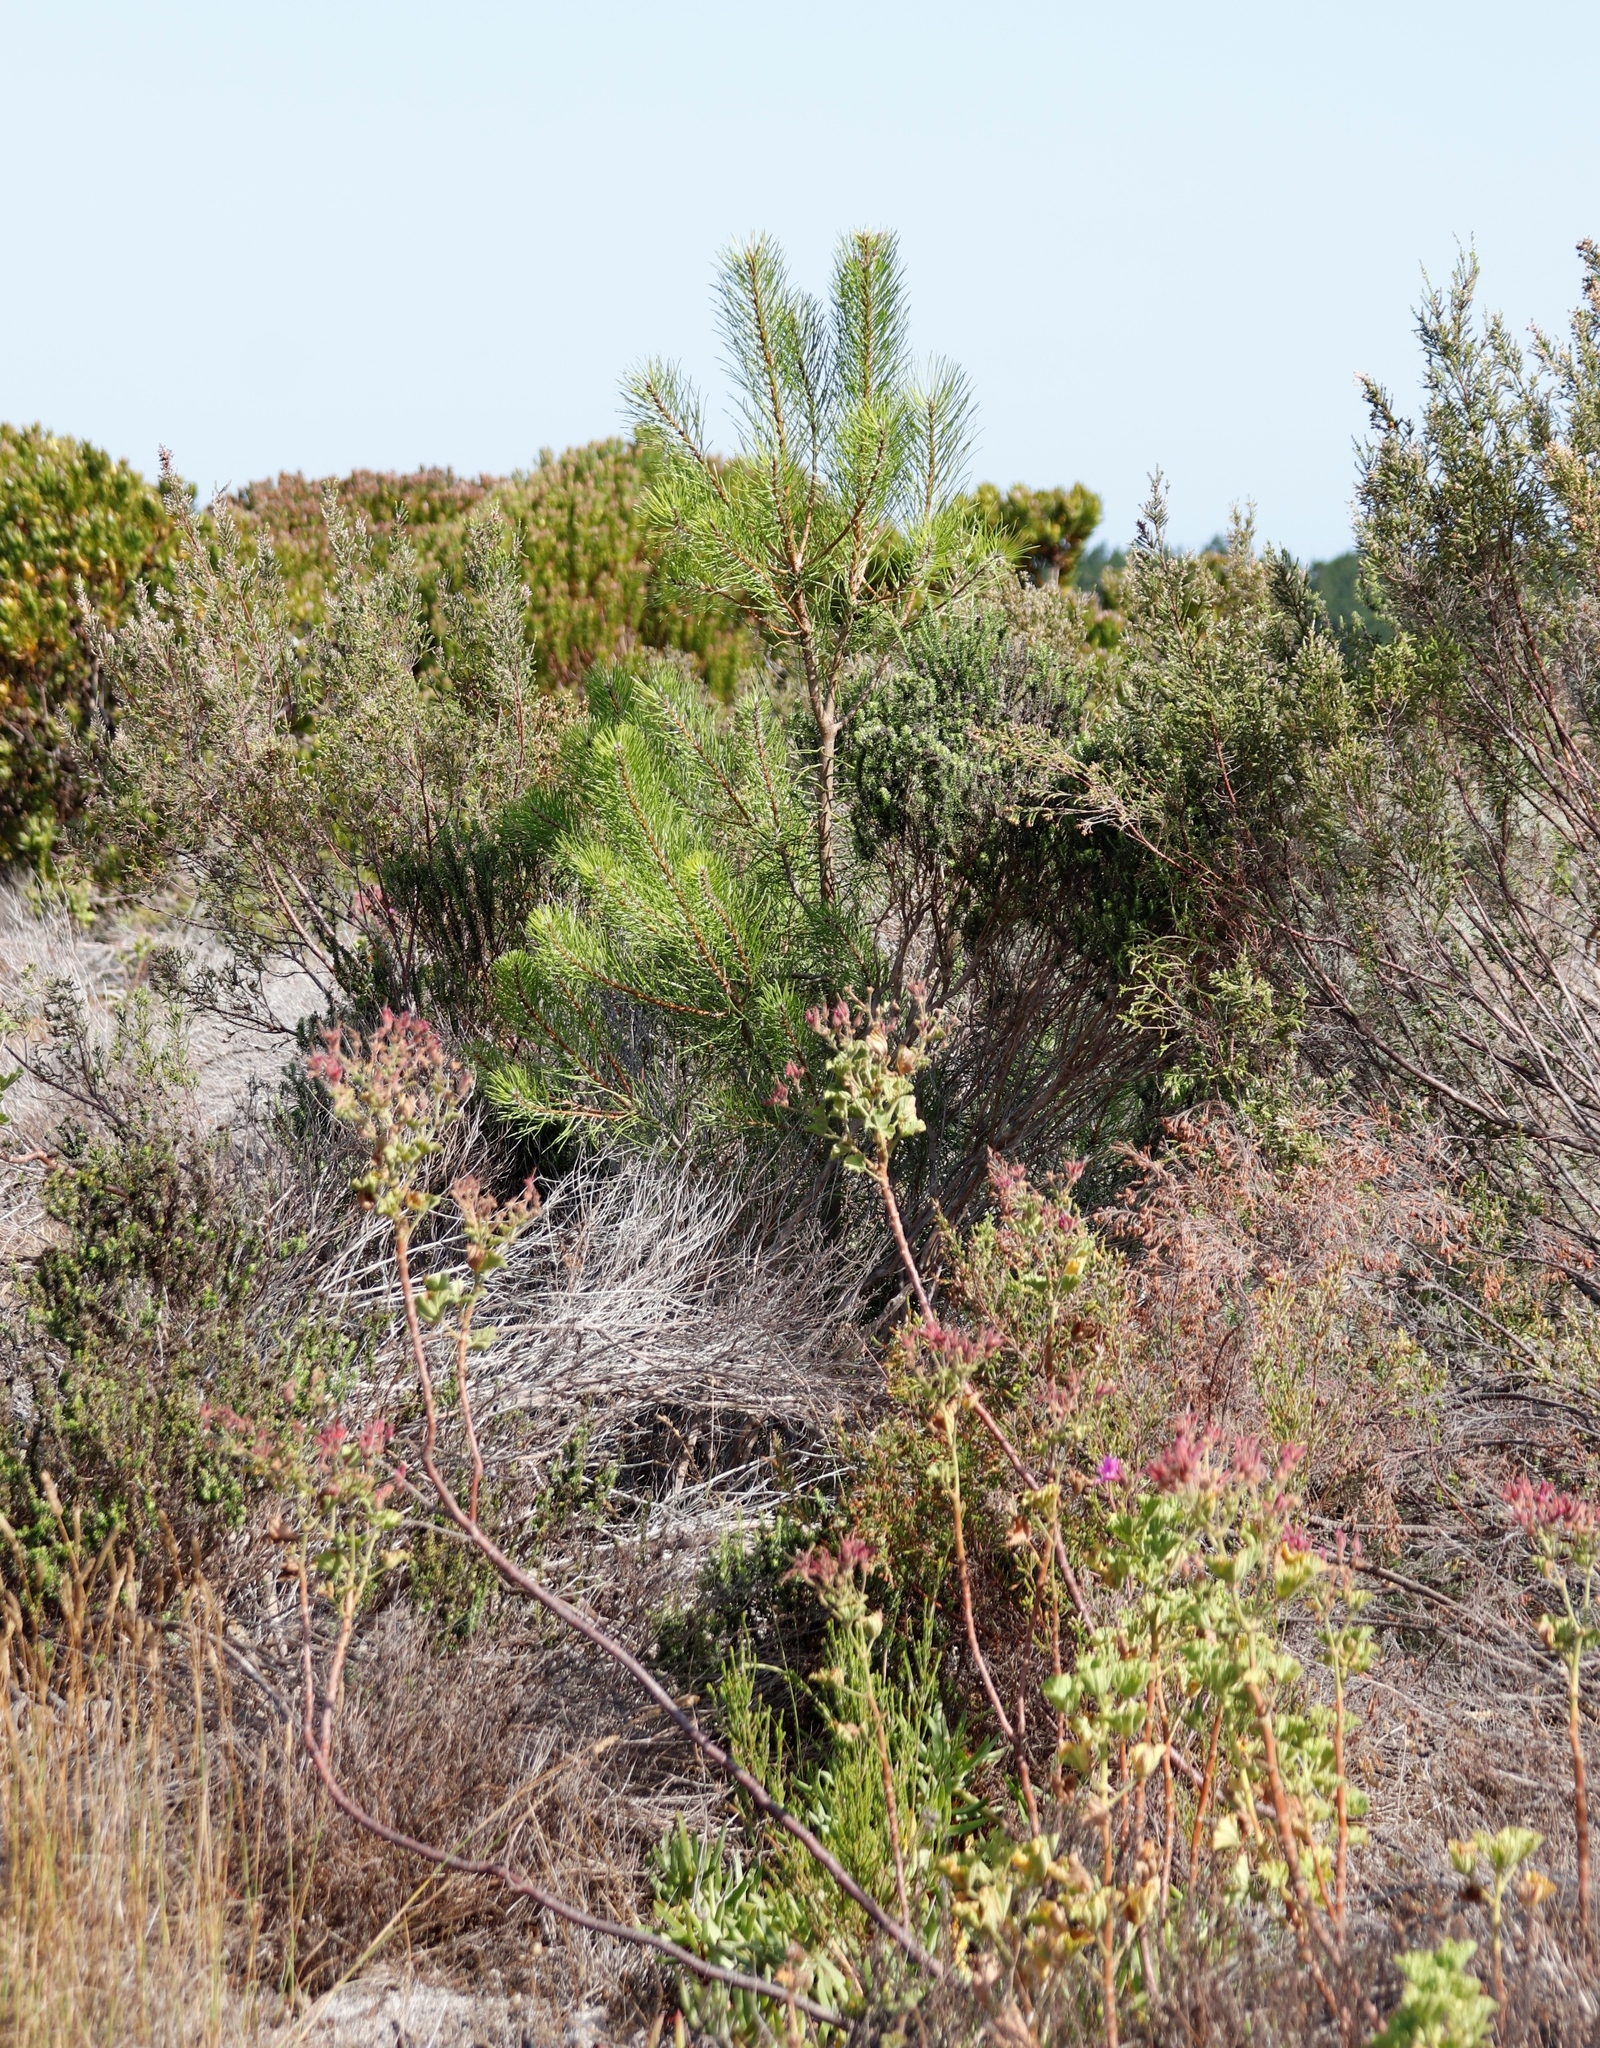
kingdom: Plantae
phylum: Tracheophyta
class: Pinopsida
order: Pinales
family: Pinaceae
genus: Pinus
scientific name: Pinus pinaster
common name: Maritime pine
